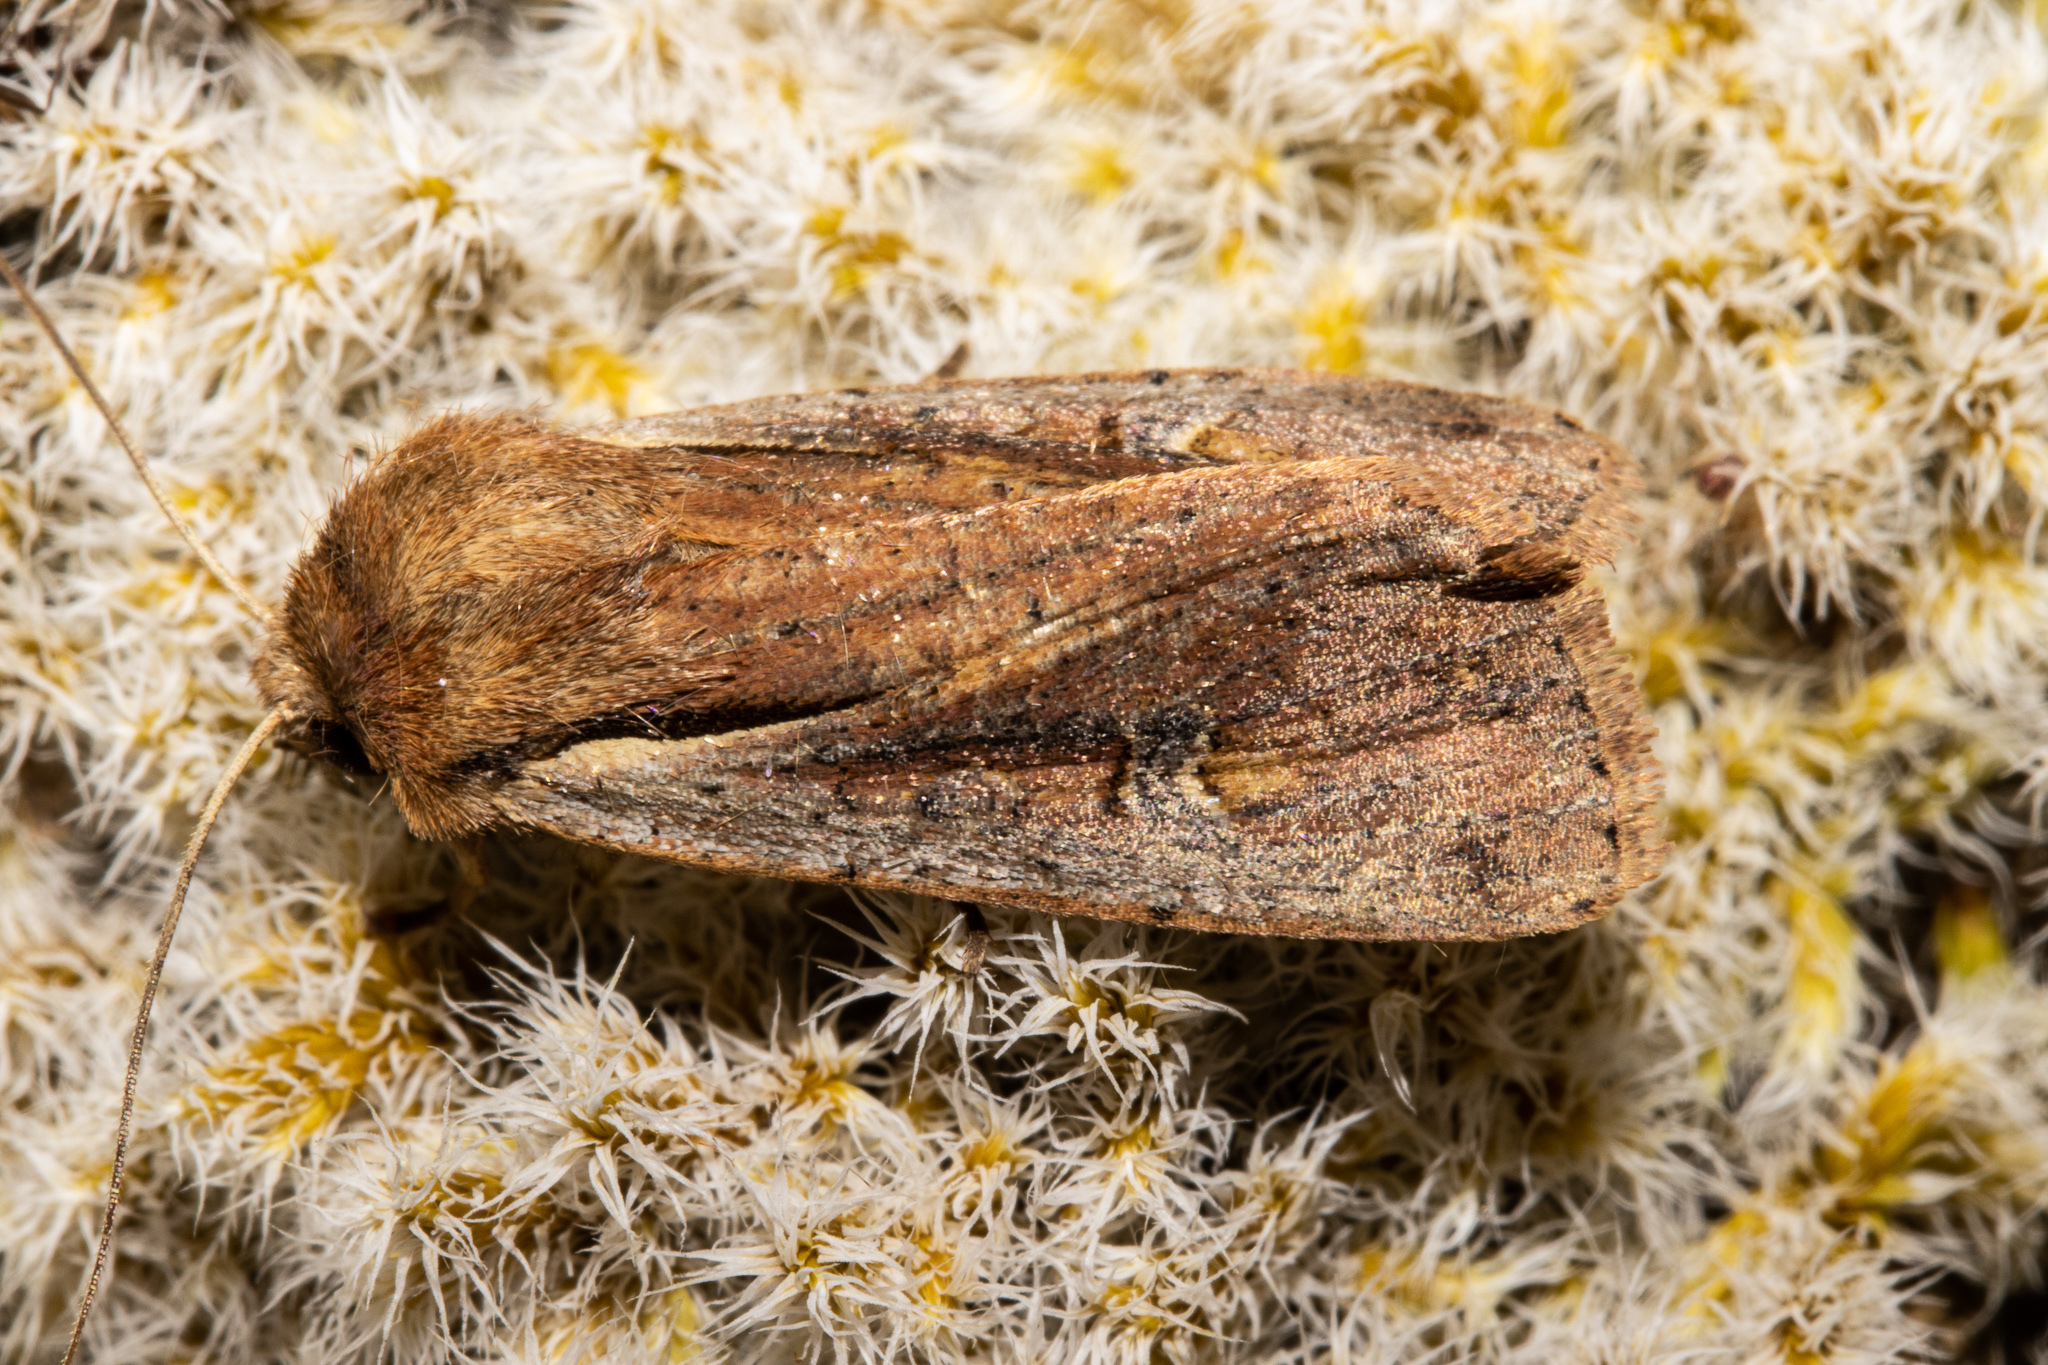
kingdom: Animalia
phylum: Arthropoda
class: Insecta
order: Lepidoptera
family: Noctuidae
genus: Ichneutica
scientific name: Ichneutica atristriga
